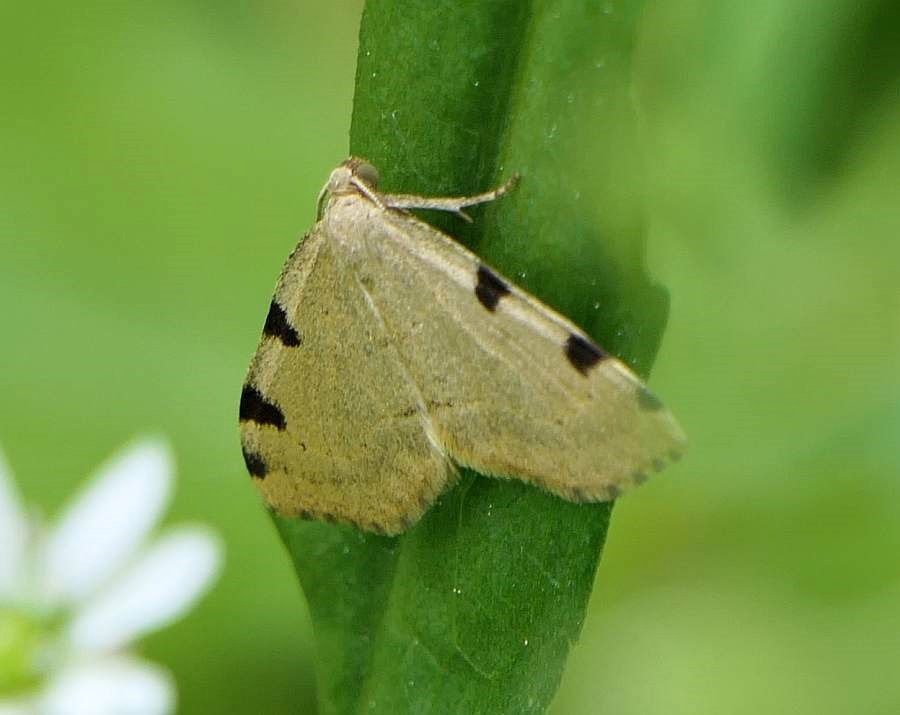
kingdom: Animalia
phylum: Arthropoda
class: Insecta
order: Lepidoptera
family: Geometridae
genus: Heterophleps
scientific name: Heterophleps triguttaria
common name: Three-spotted fillip
